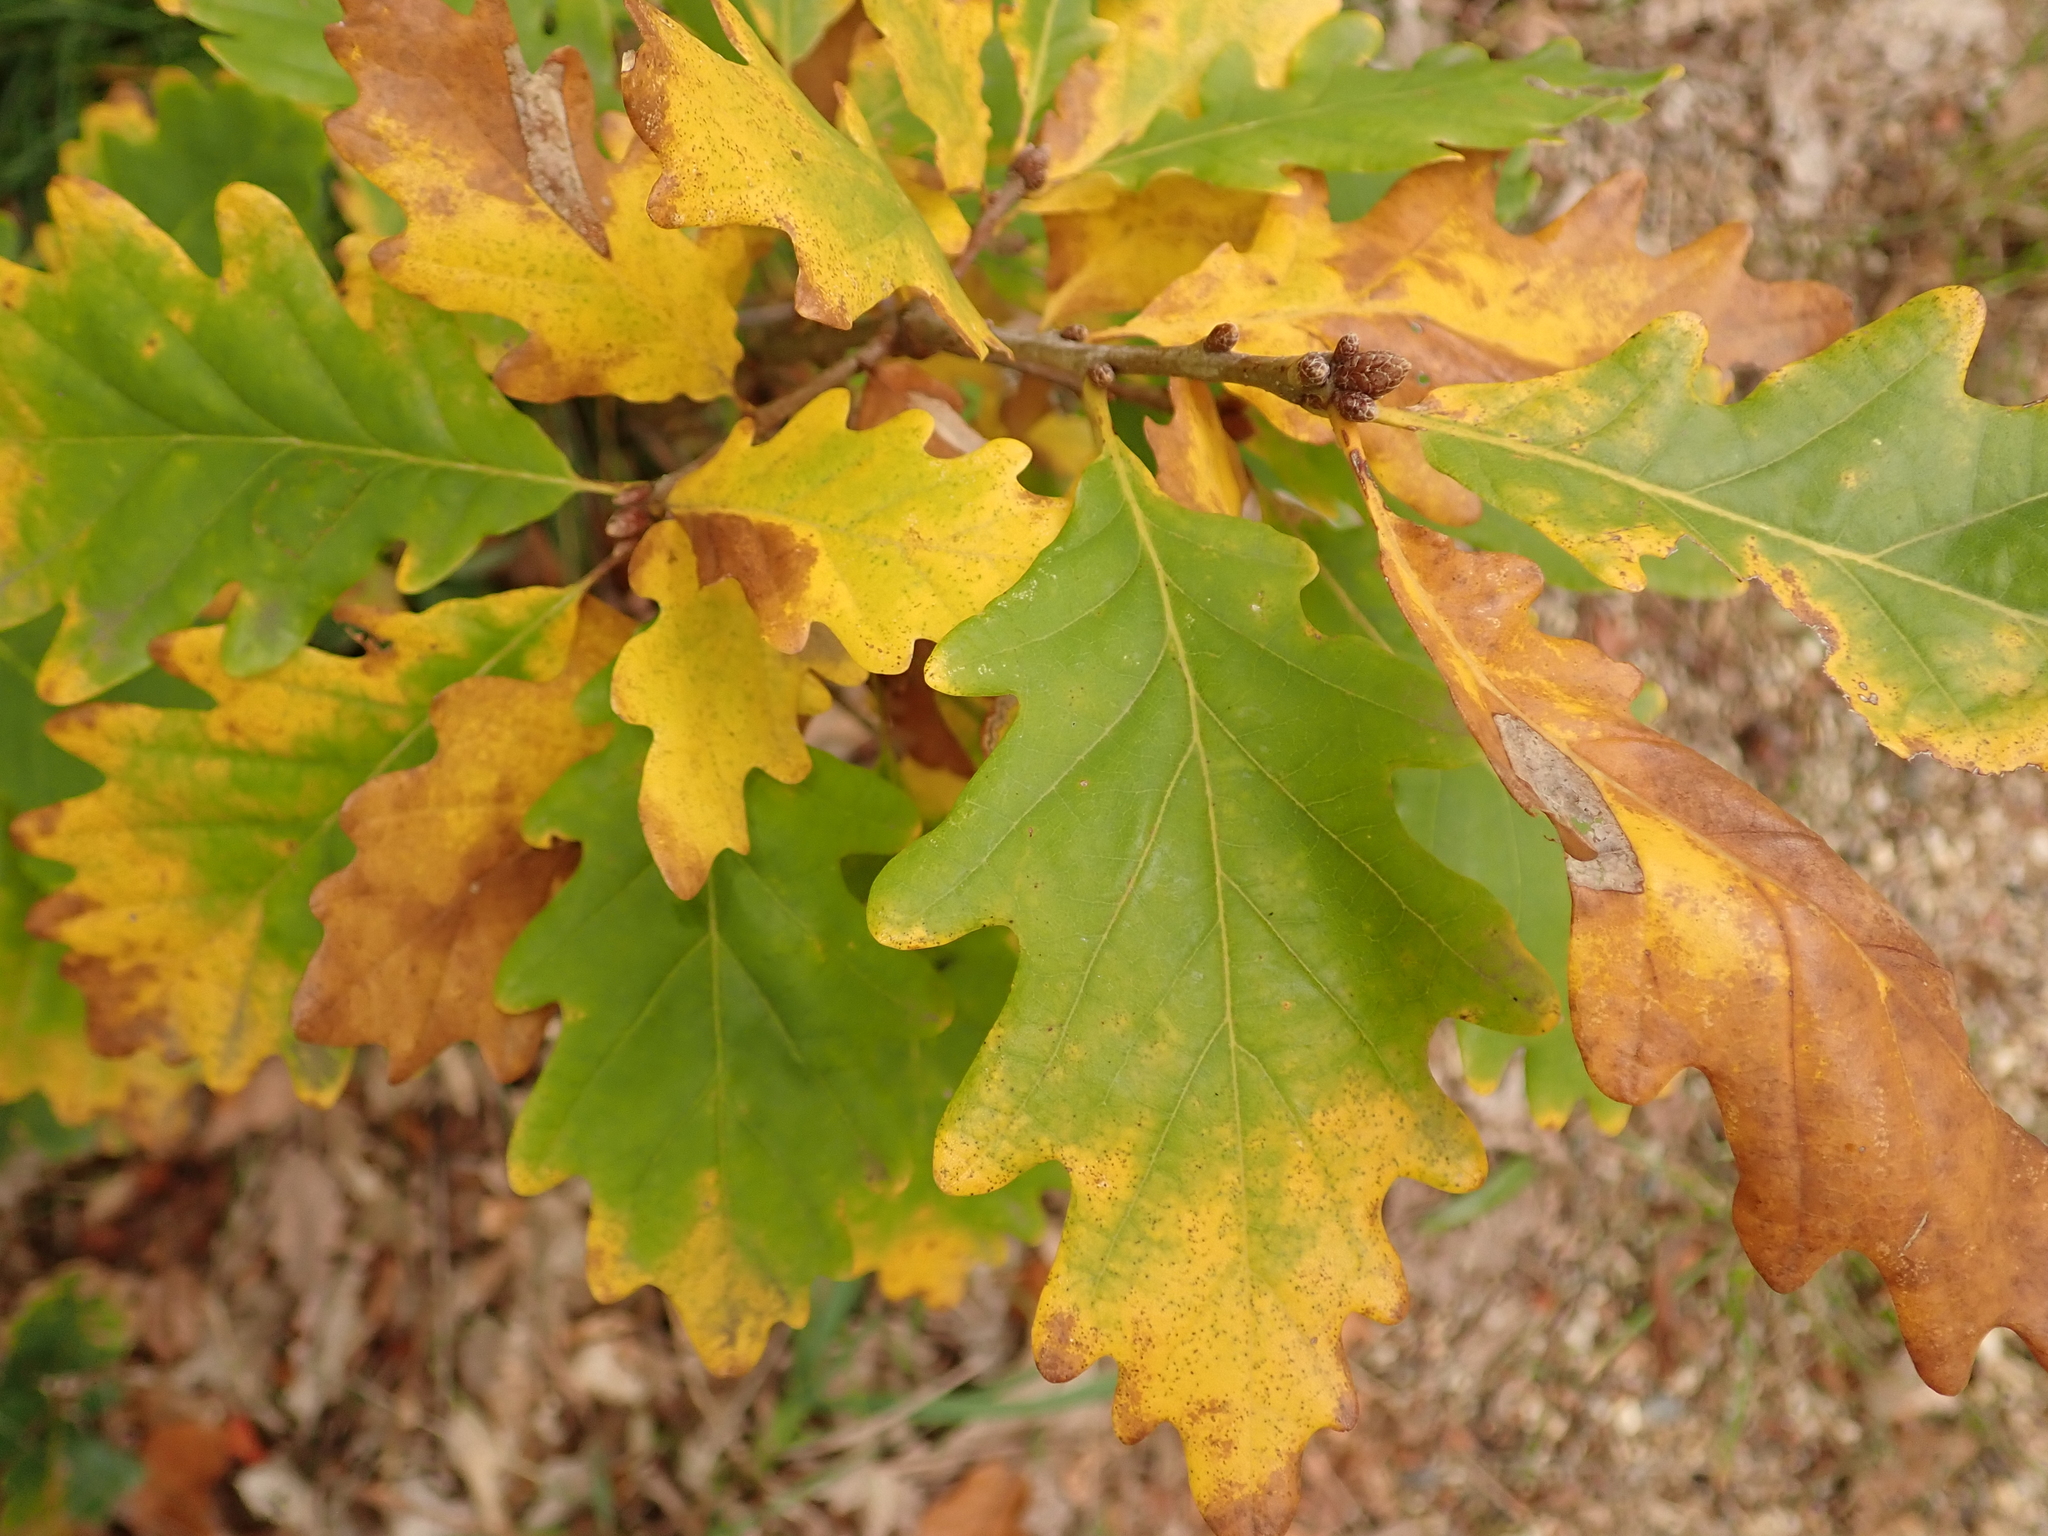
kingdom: Plantae
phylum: Tracheophyta
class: Magnoliopsida
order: Fagales
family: Fagaceae
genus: Quercus
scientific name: Quercus petraea
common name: Sessile oak
